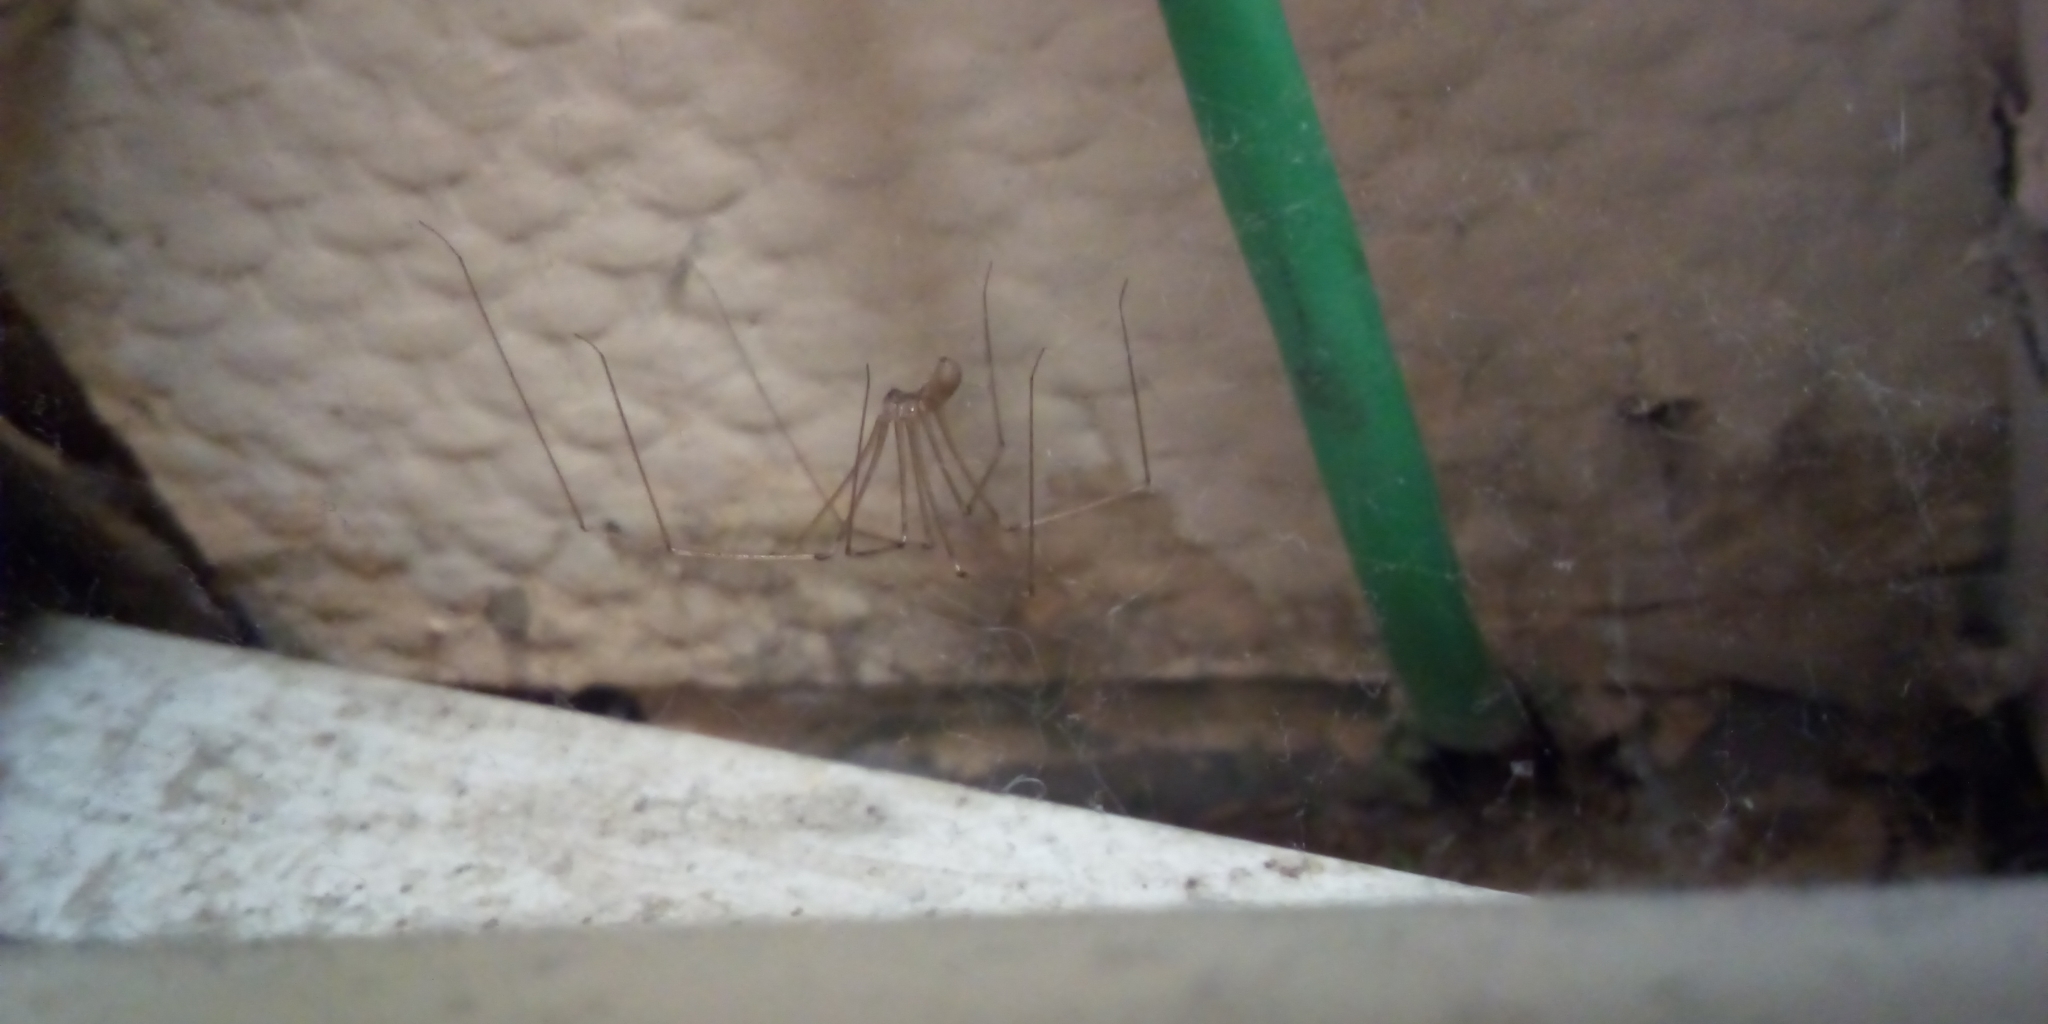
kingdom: Animalia
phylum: Arthropoda
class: Arachnida
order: Araneae
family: Pholcidae
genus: Pholcus
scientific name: Pholcus phalangioides
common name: Longbodied cellar spider
